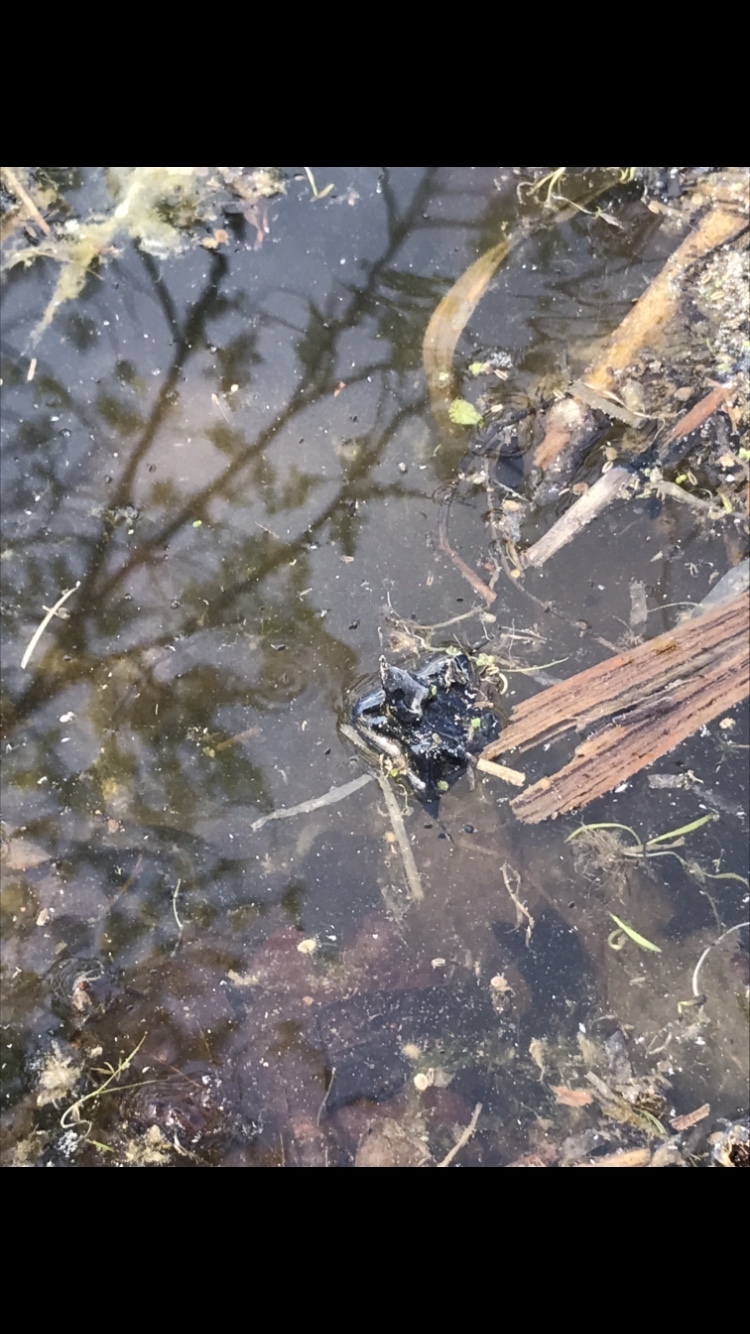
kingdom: Plantae
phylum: Tracheophyta
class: Magnoliopsida
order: Myrtales
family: Lythraceae
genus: Trapa
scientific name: Trapa natans
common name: Water chestnut
